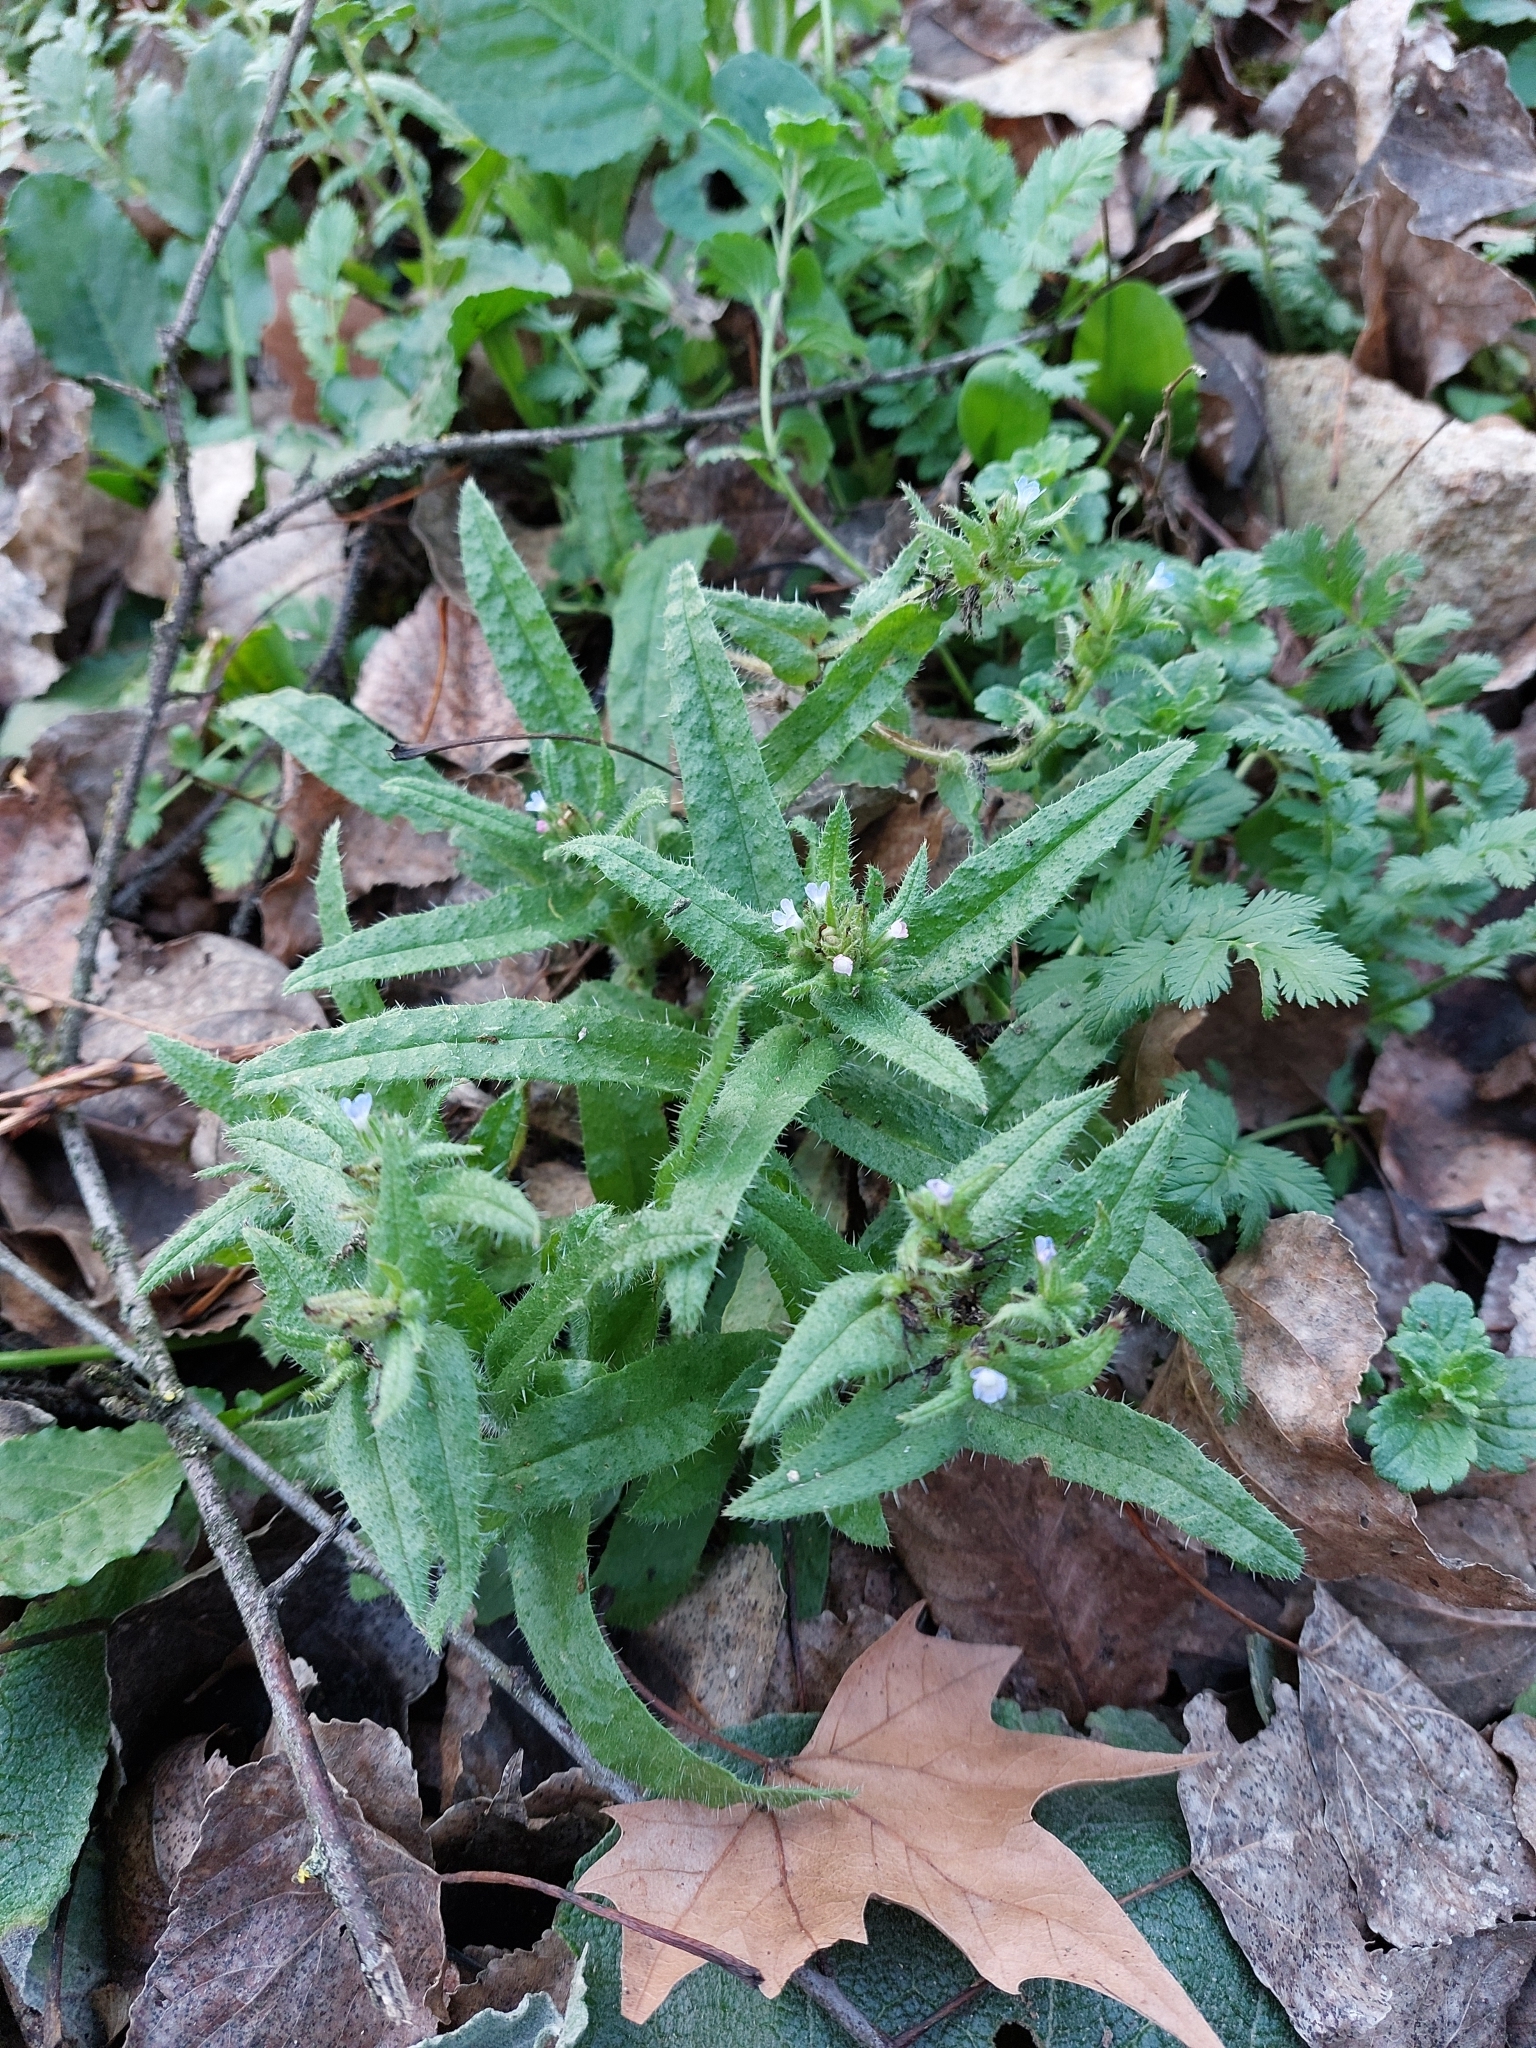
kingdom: Plantae
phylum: Tracheophyta
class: Magnoliopsida
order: Boraginales
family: Boraginaceae
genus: Lycopsis
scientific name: Lycopsis arvensis
